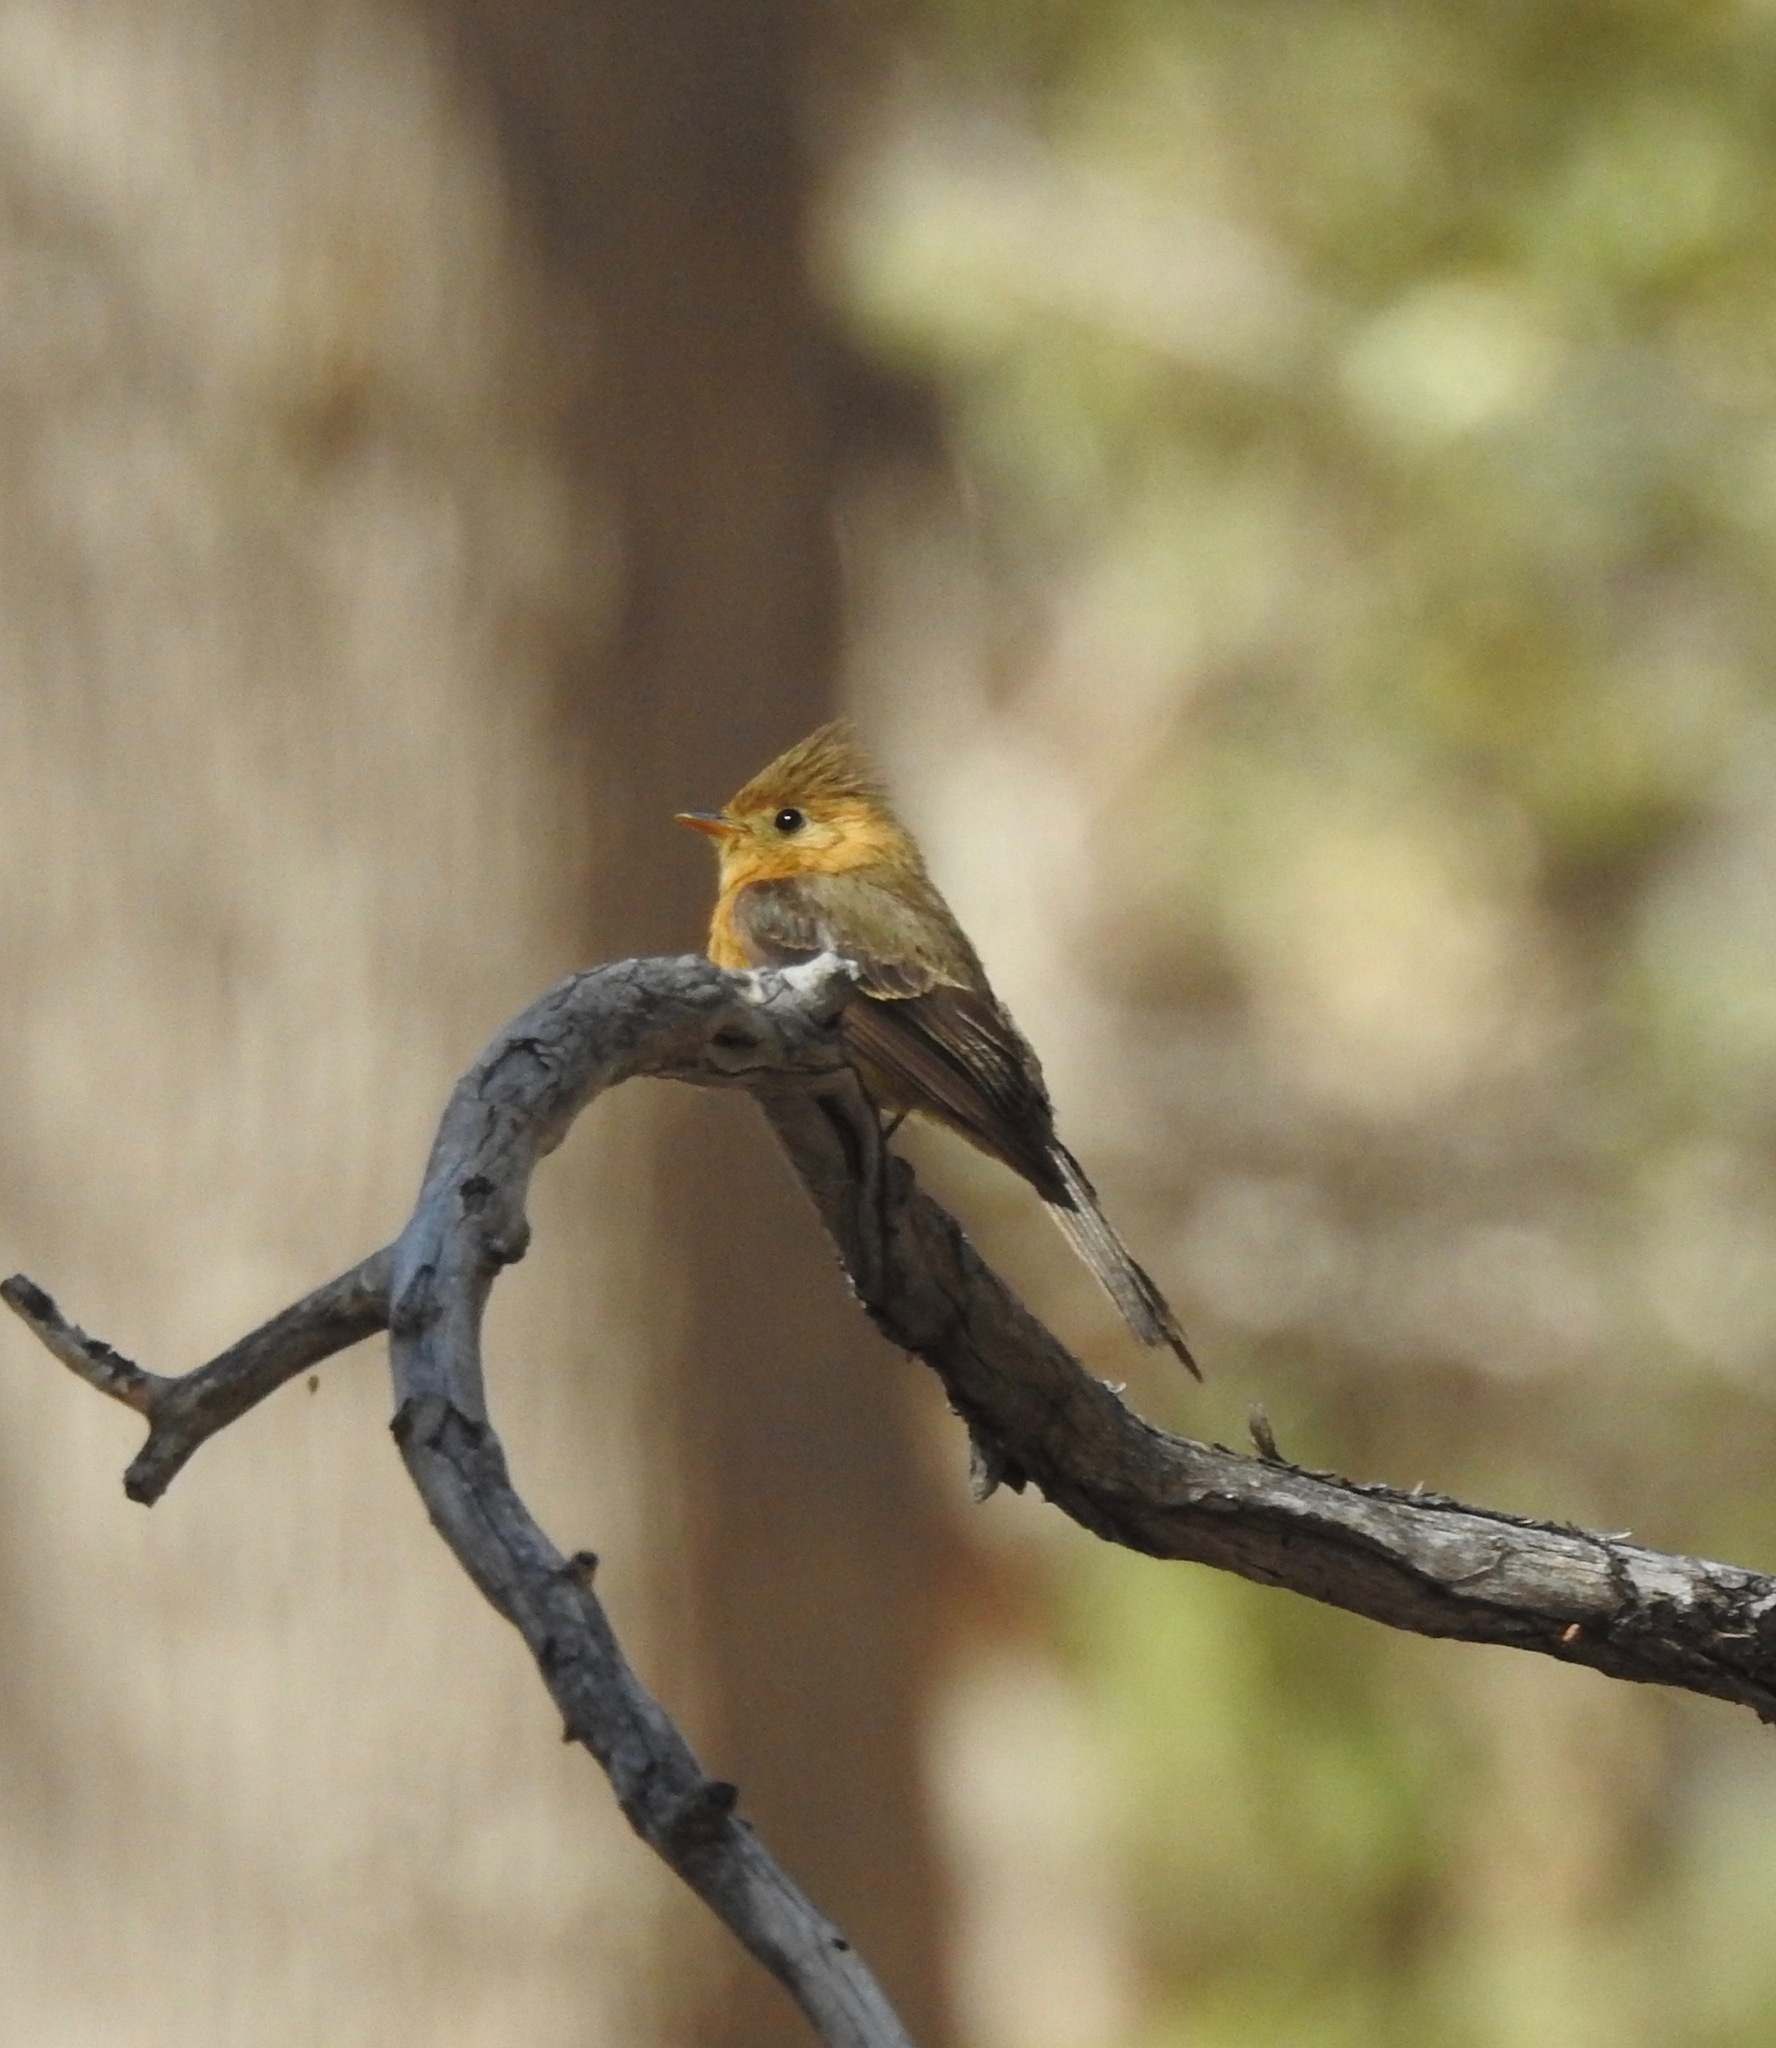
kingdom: Animalia
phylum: Chordata
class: Aves
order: Passeriformes
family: Tyrannidae
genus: Mitrephanes
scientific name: Mitrephanes phaeocercus
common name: Northern tufted flycatcher
